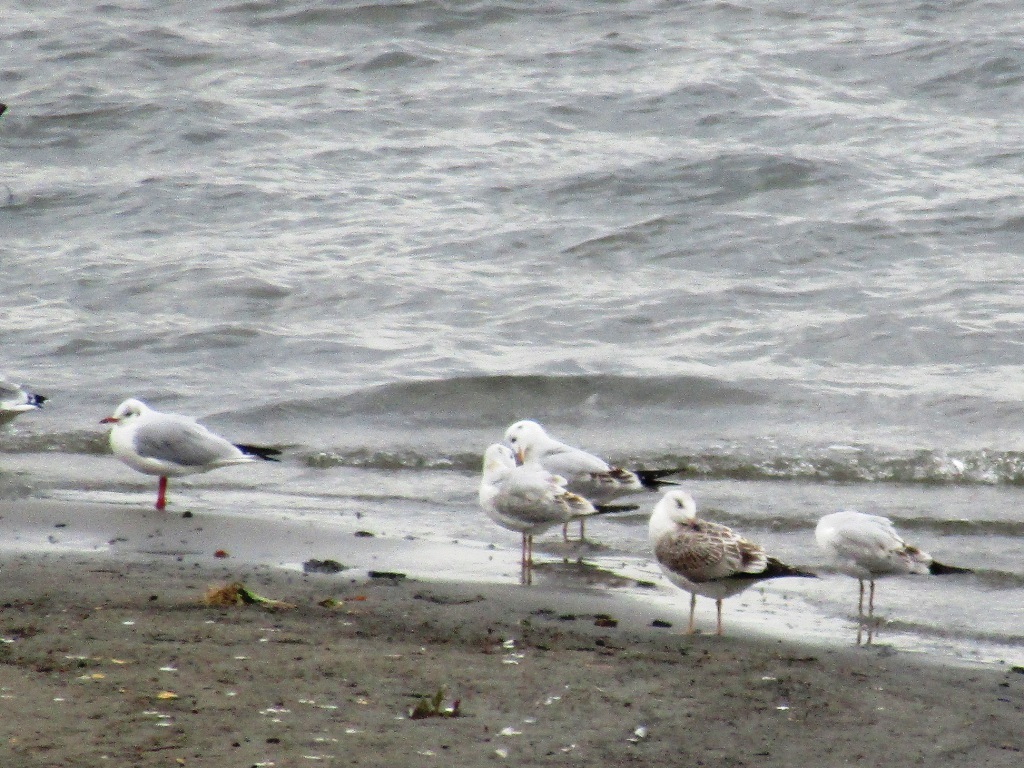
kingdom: Animalia
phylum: Chordata
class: Aves
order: Charadriiformes
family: Laridae
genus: Chroicocephalus
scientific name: Chroicocephalus ridibundus
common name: Black-headed gull
